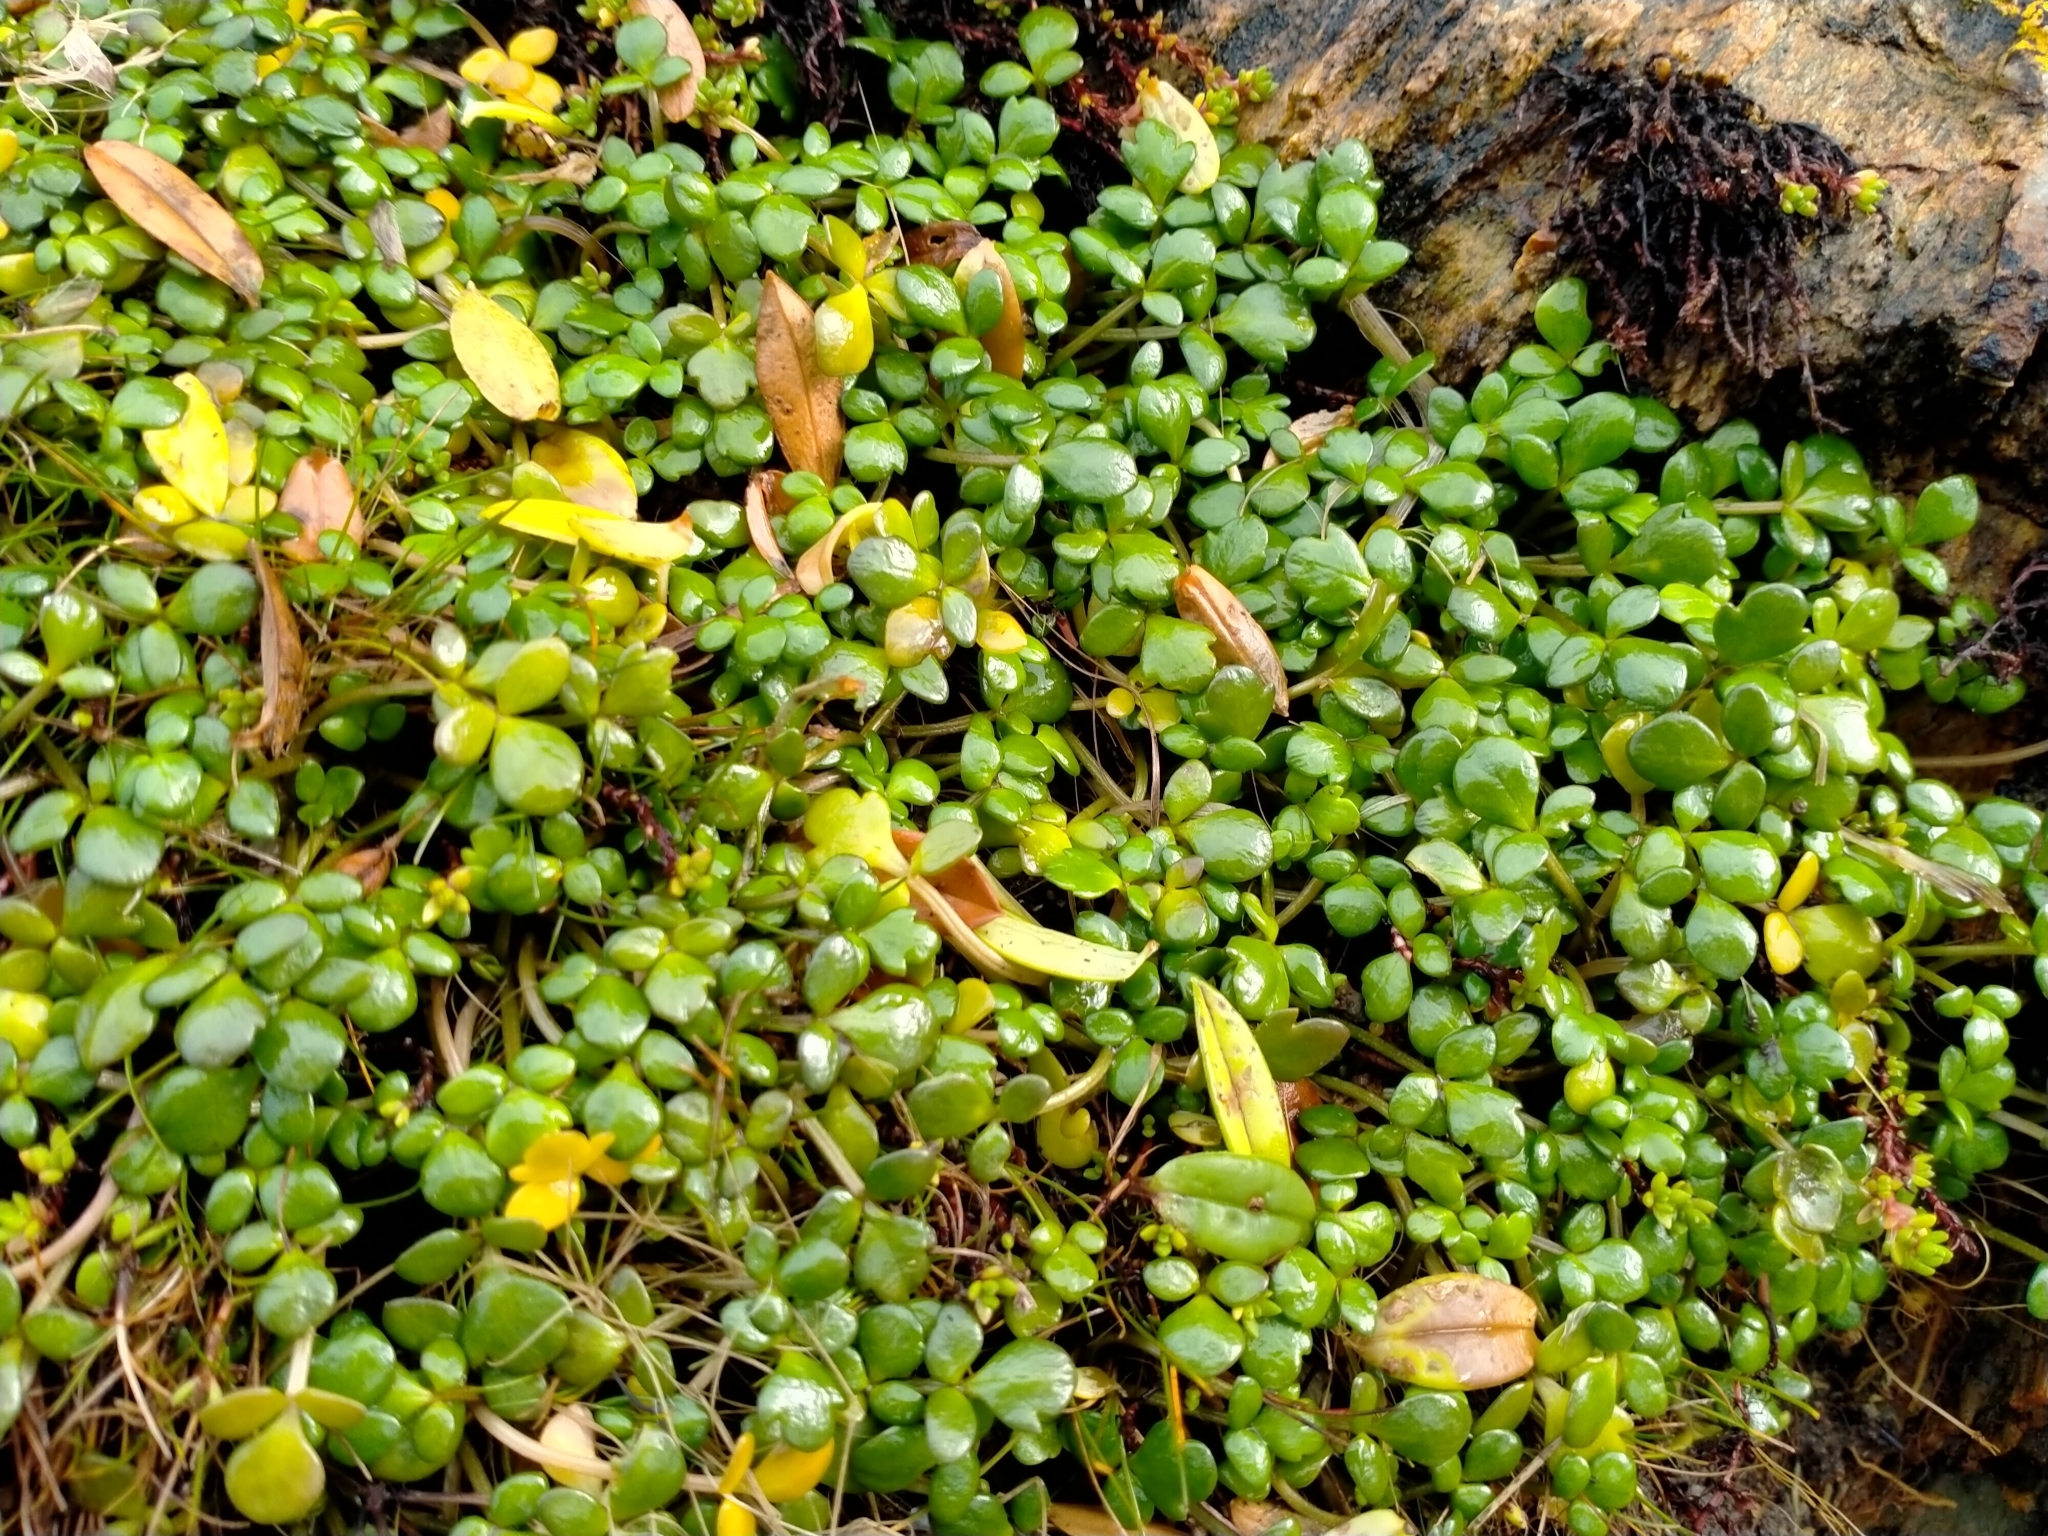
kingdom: Plantae
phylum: Tracheophyta
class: Magnoliopsida
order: Ranunculales
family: Ranunculaceae
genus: Ranunculus
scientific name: Ranunculus acaulis
